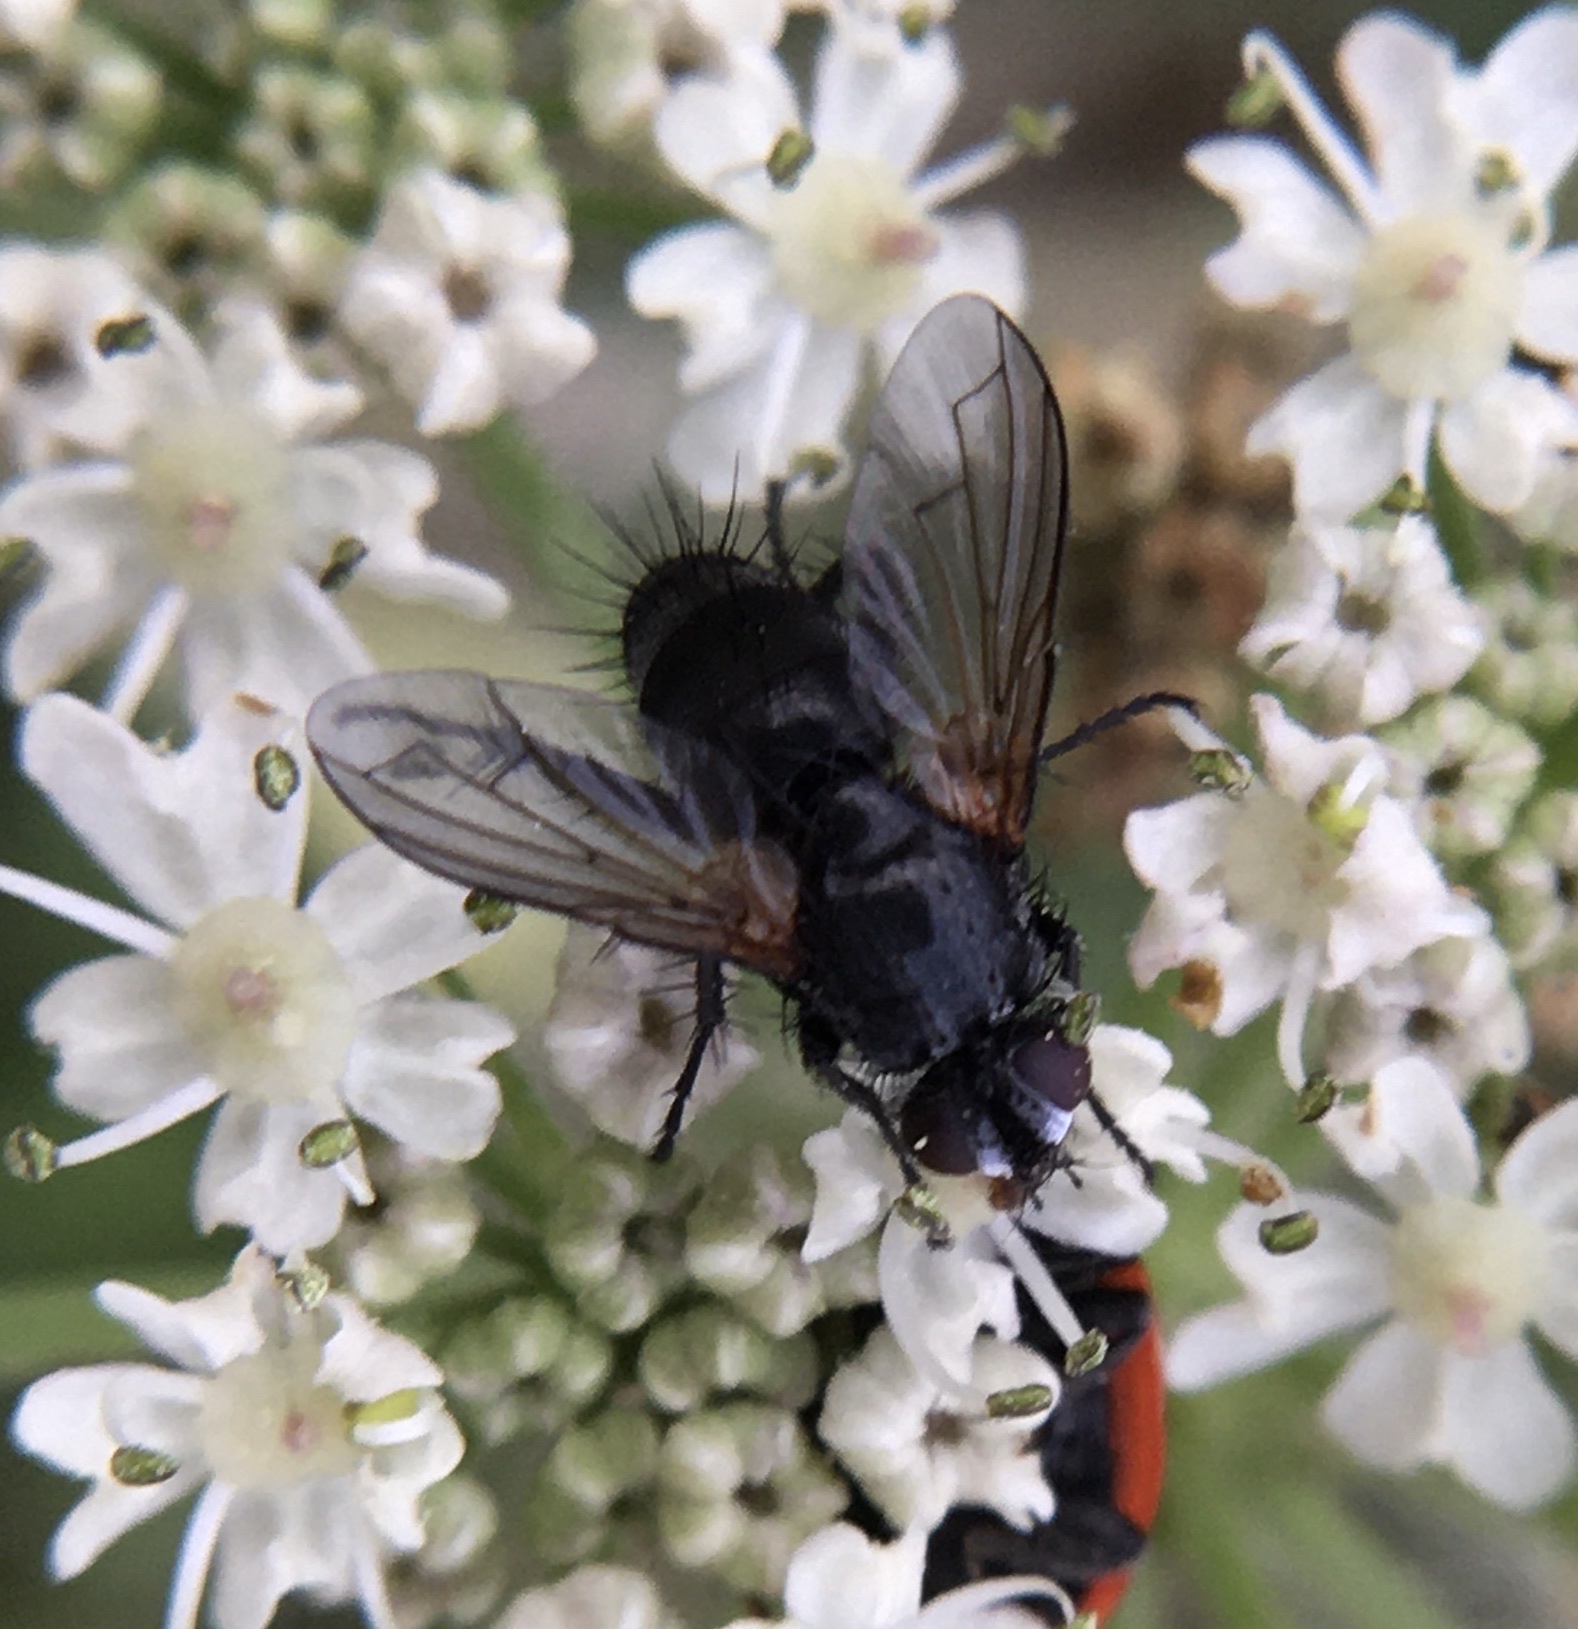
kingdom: Animalia
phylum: Arthropoda
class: Insecta
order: Diptera
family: Tachinidae
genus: Ligeria
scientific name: Ligeria angusticornis
